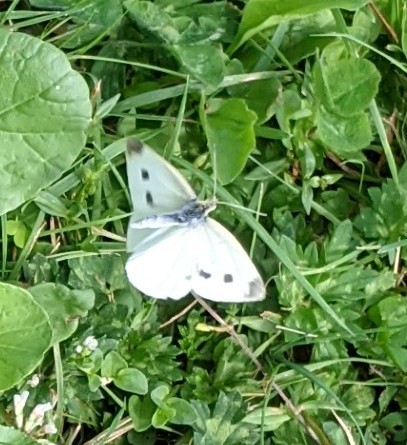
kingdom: Animalia
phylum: Arthropoda
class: Insecta
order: Lepidoptera
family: Pieridae
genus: Pieris
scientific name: Pieris rapae
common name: Small white
